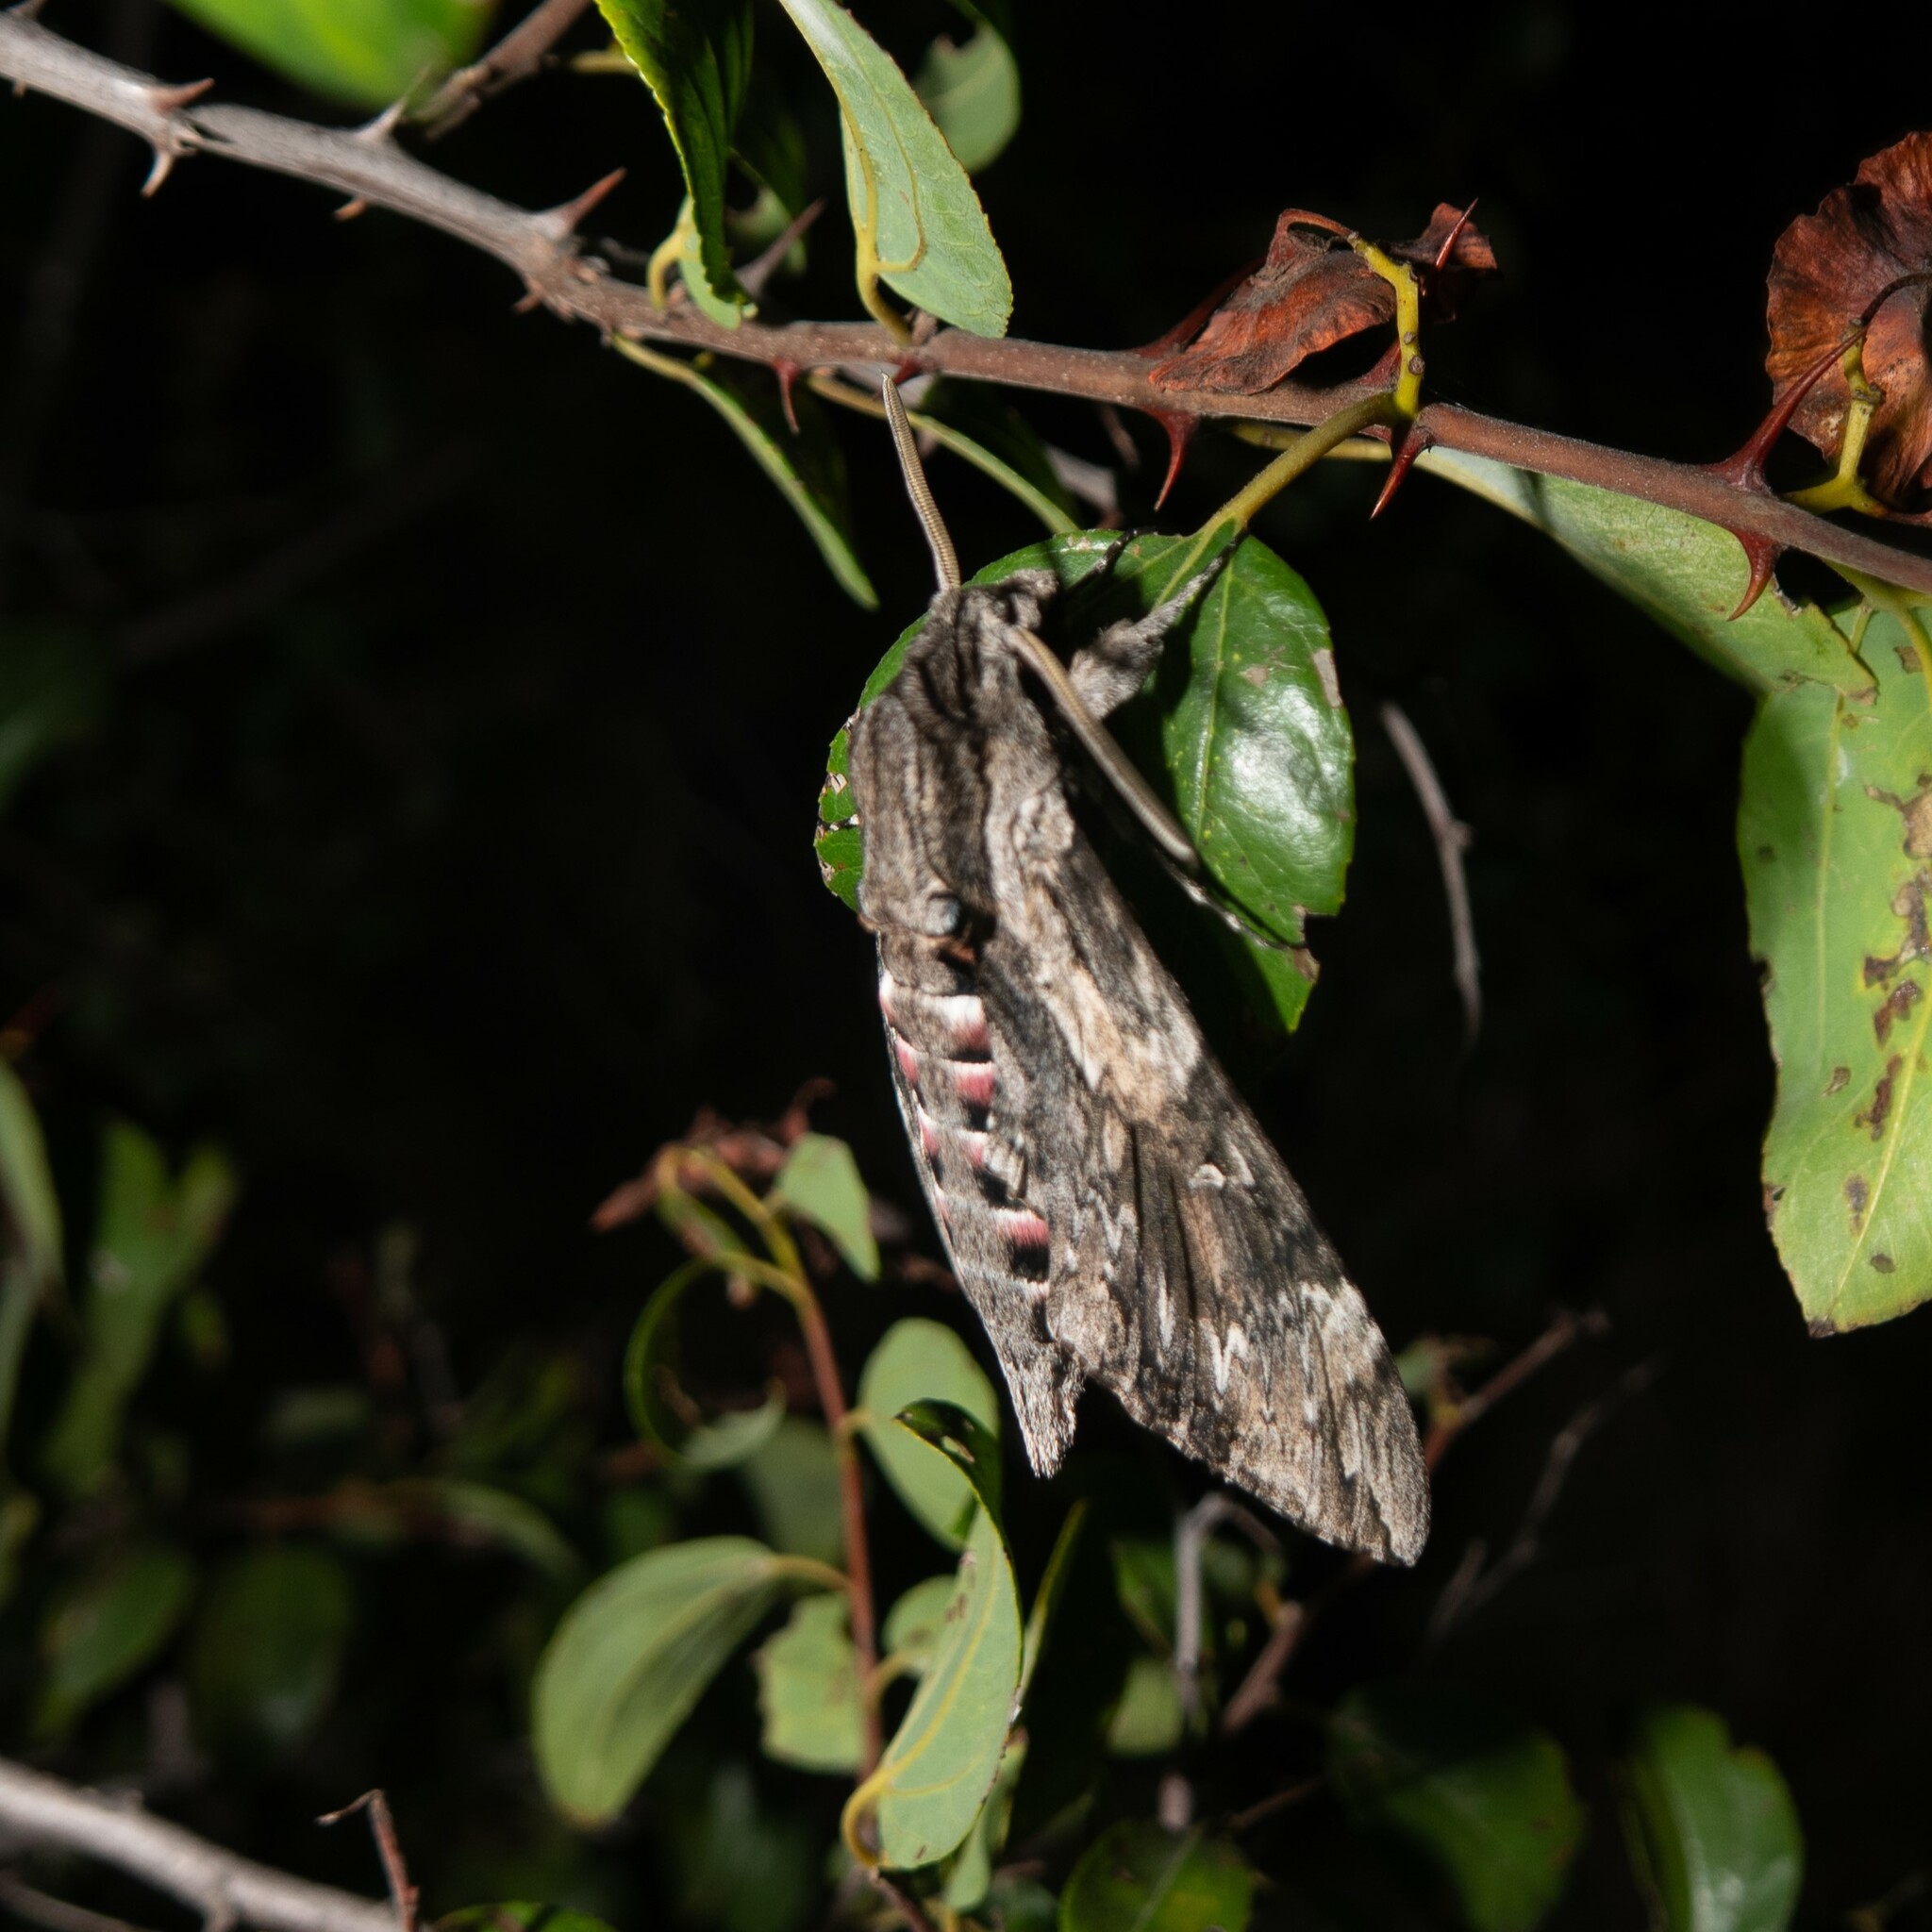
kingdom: Animalia
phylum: Arthropoda
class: Insecta
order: Lepidoptera
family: Sphingidae
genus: Agrius
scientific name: Agrius convolvuli
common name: Convolvulus hawkmoth
